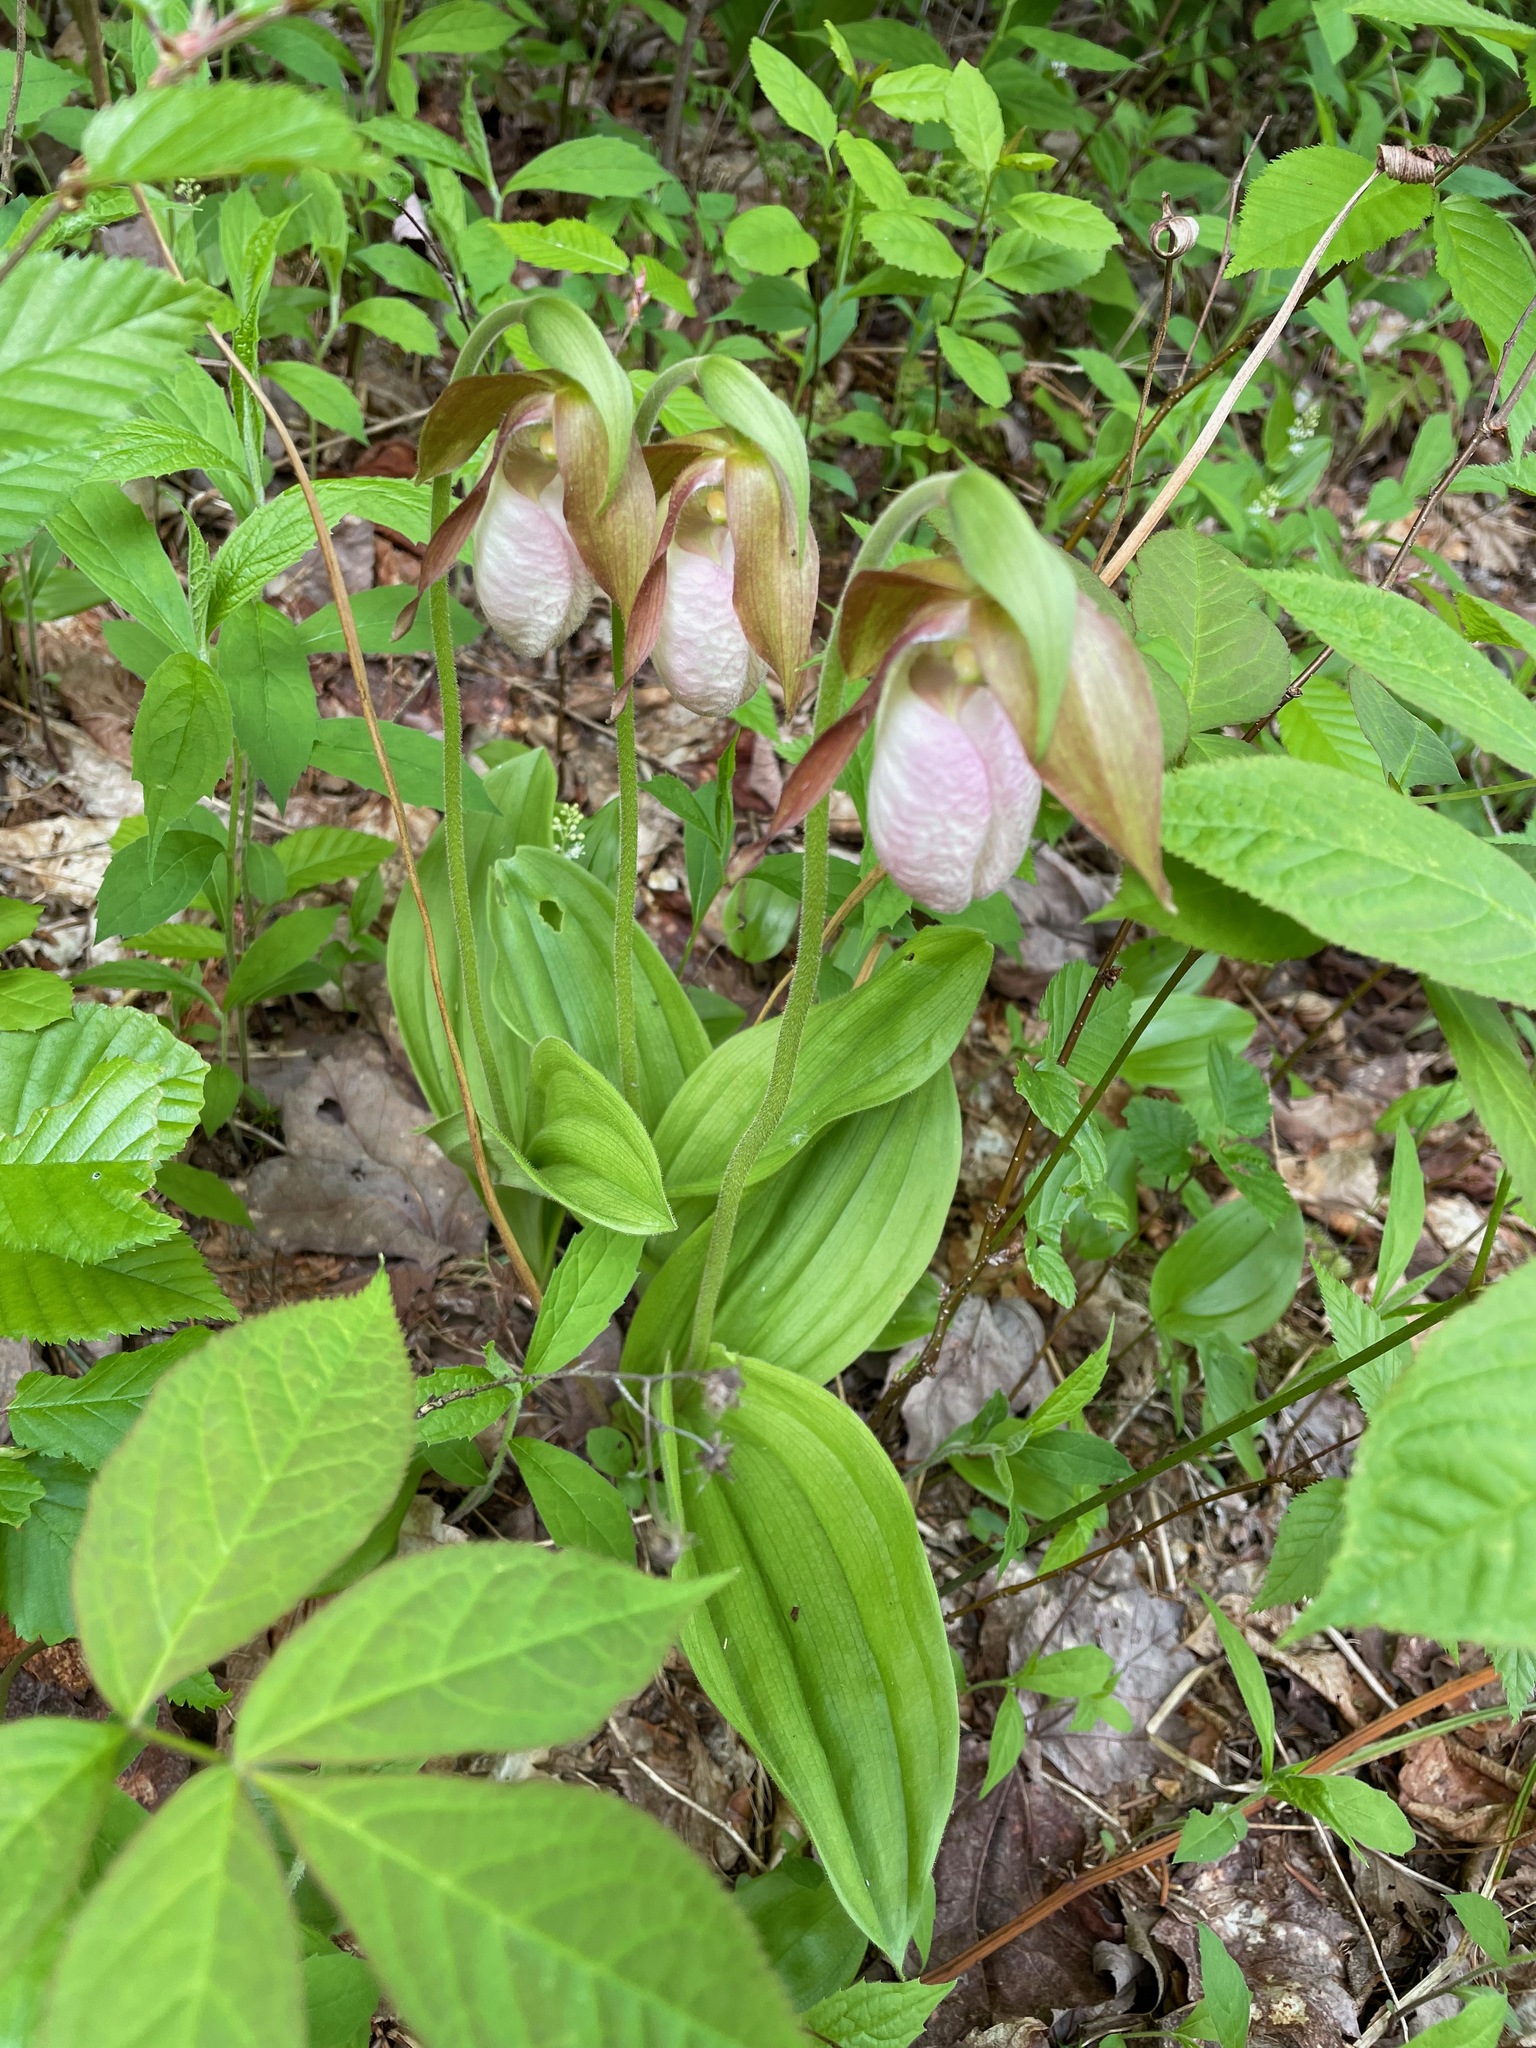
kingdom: Plantae
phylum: Tracheophyta
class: Liliopsida
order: Asparagales
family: Orchidaceae
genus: Cypripedium
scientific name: Cypripedium acaule
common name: Pink lady's-slipper
